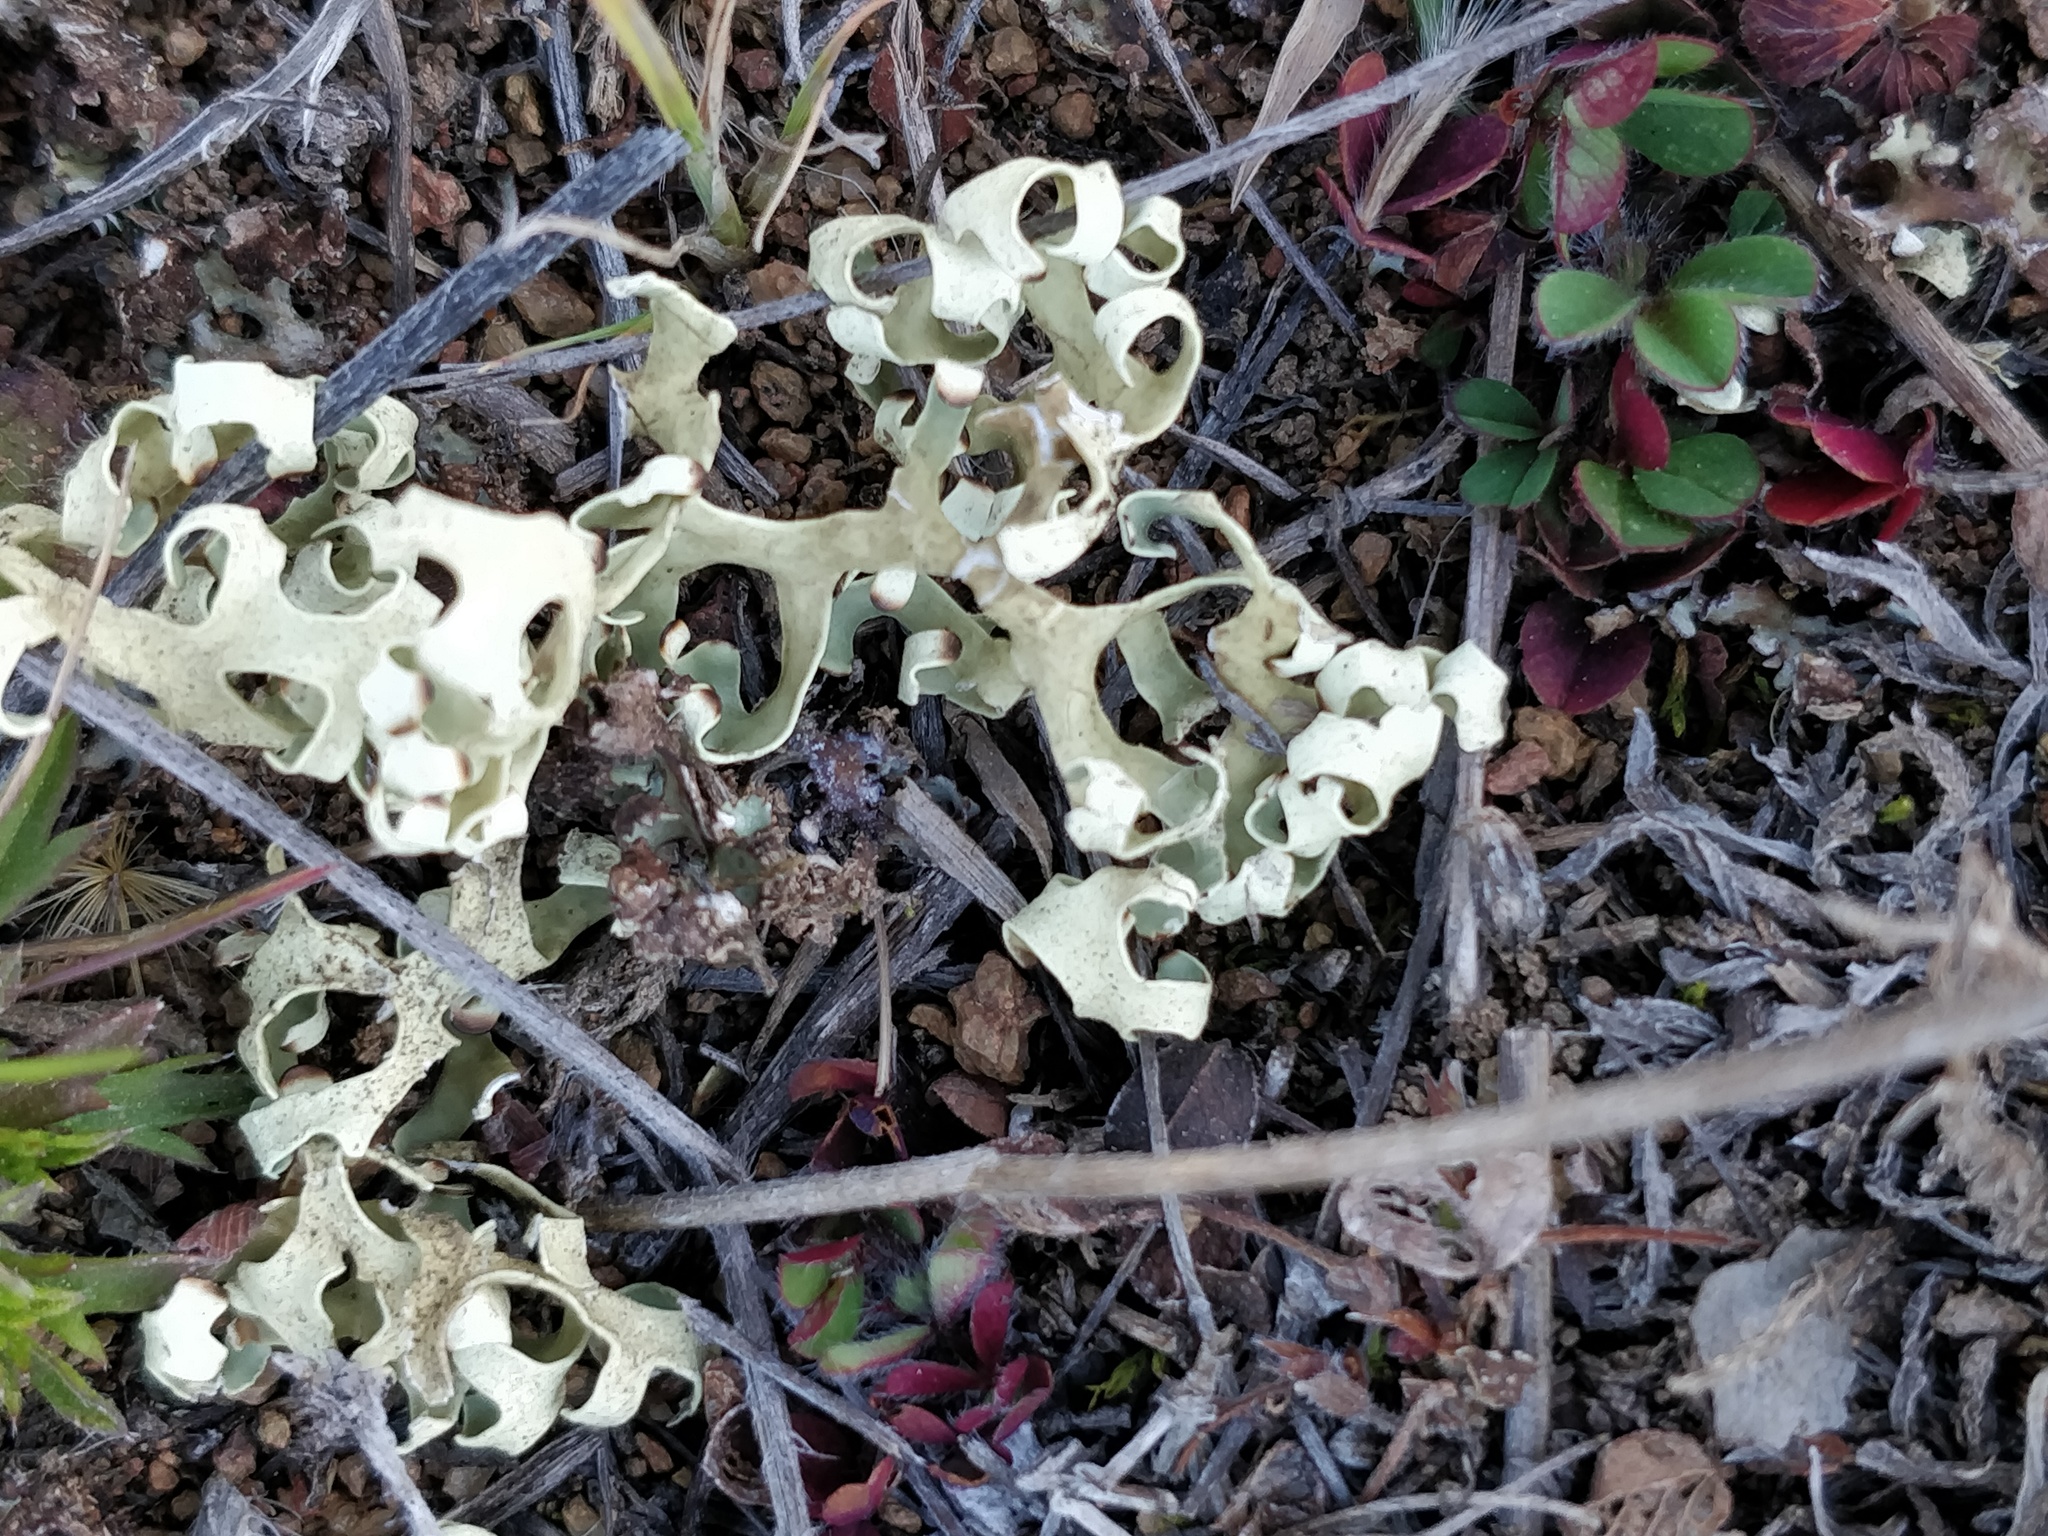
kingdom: Fungi
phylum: Ascomycota
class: Lecanoromycetes
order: Lecanorales
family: Parmeliaceae
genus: Xanthoparmelia
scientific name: Xanthoparmelia semiviridis
